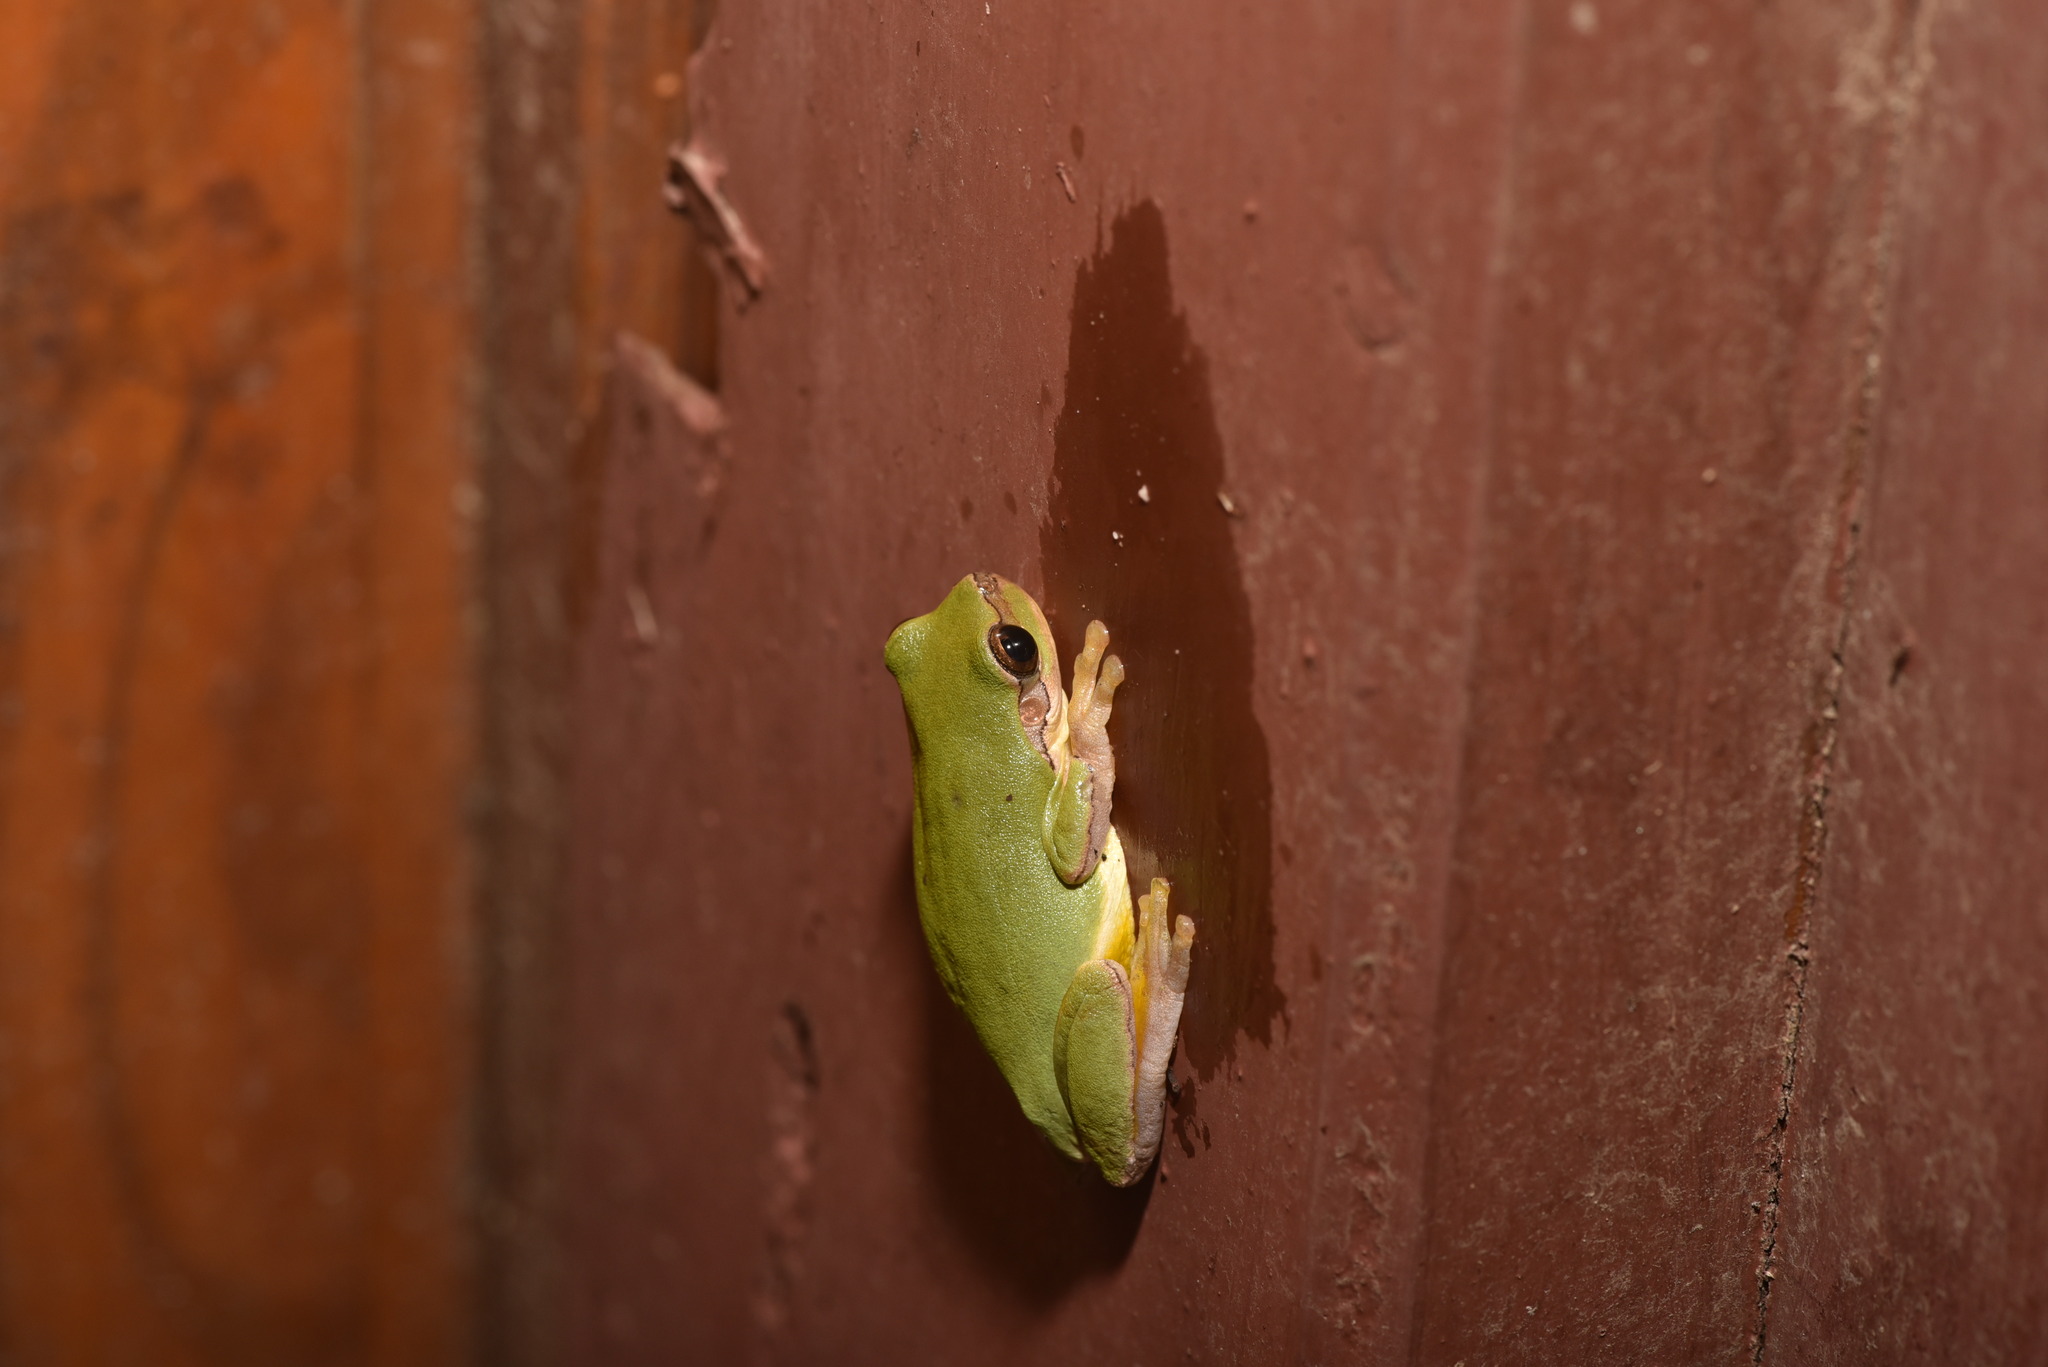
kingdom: Animalia
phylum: Chordata
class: Amphibia
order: Anura
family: Hylidae
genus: Hyla
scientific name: Hyla chinensis
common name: Common chinese treefrog
